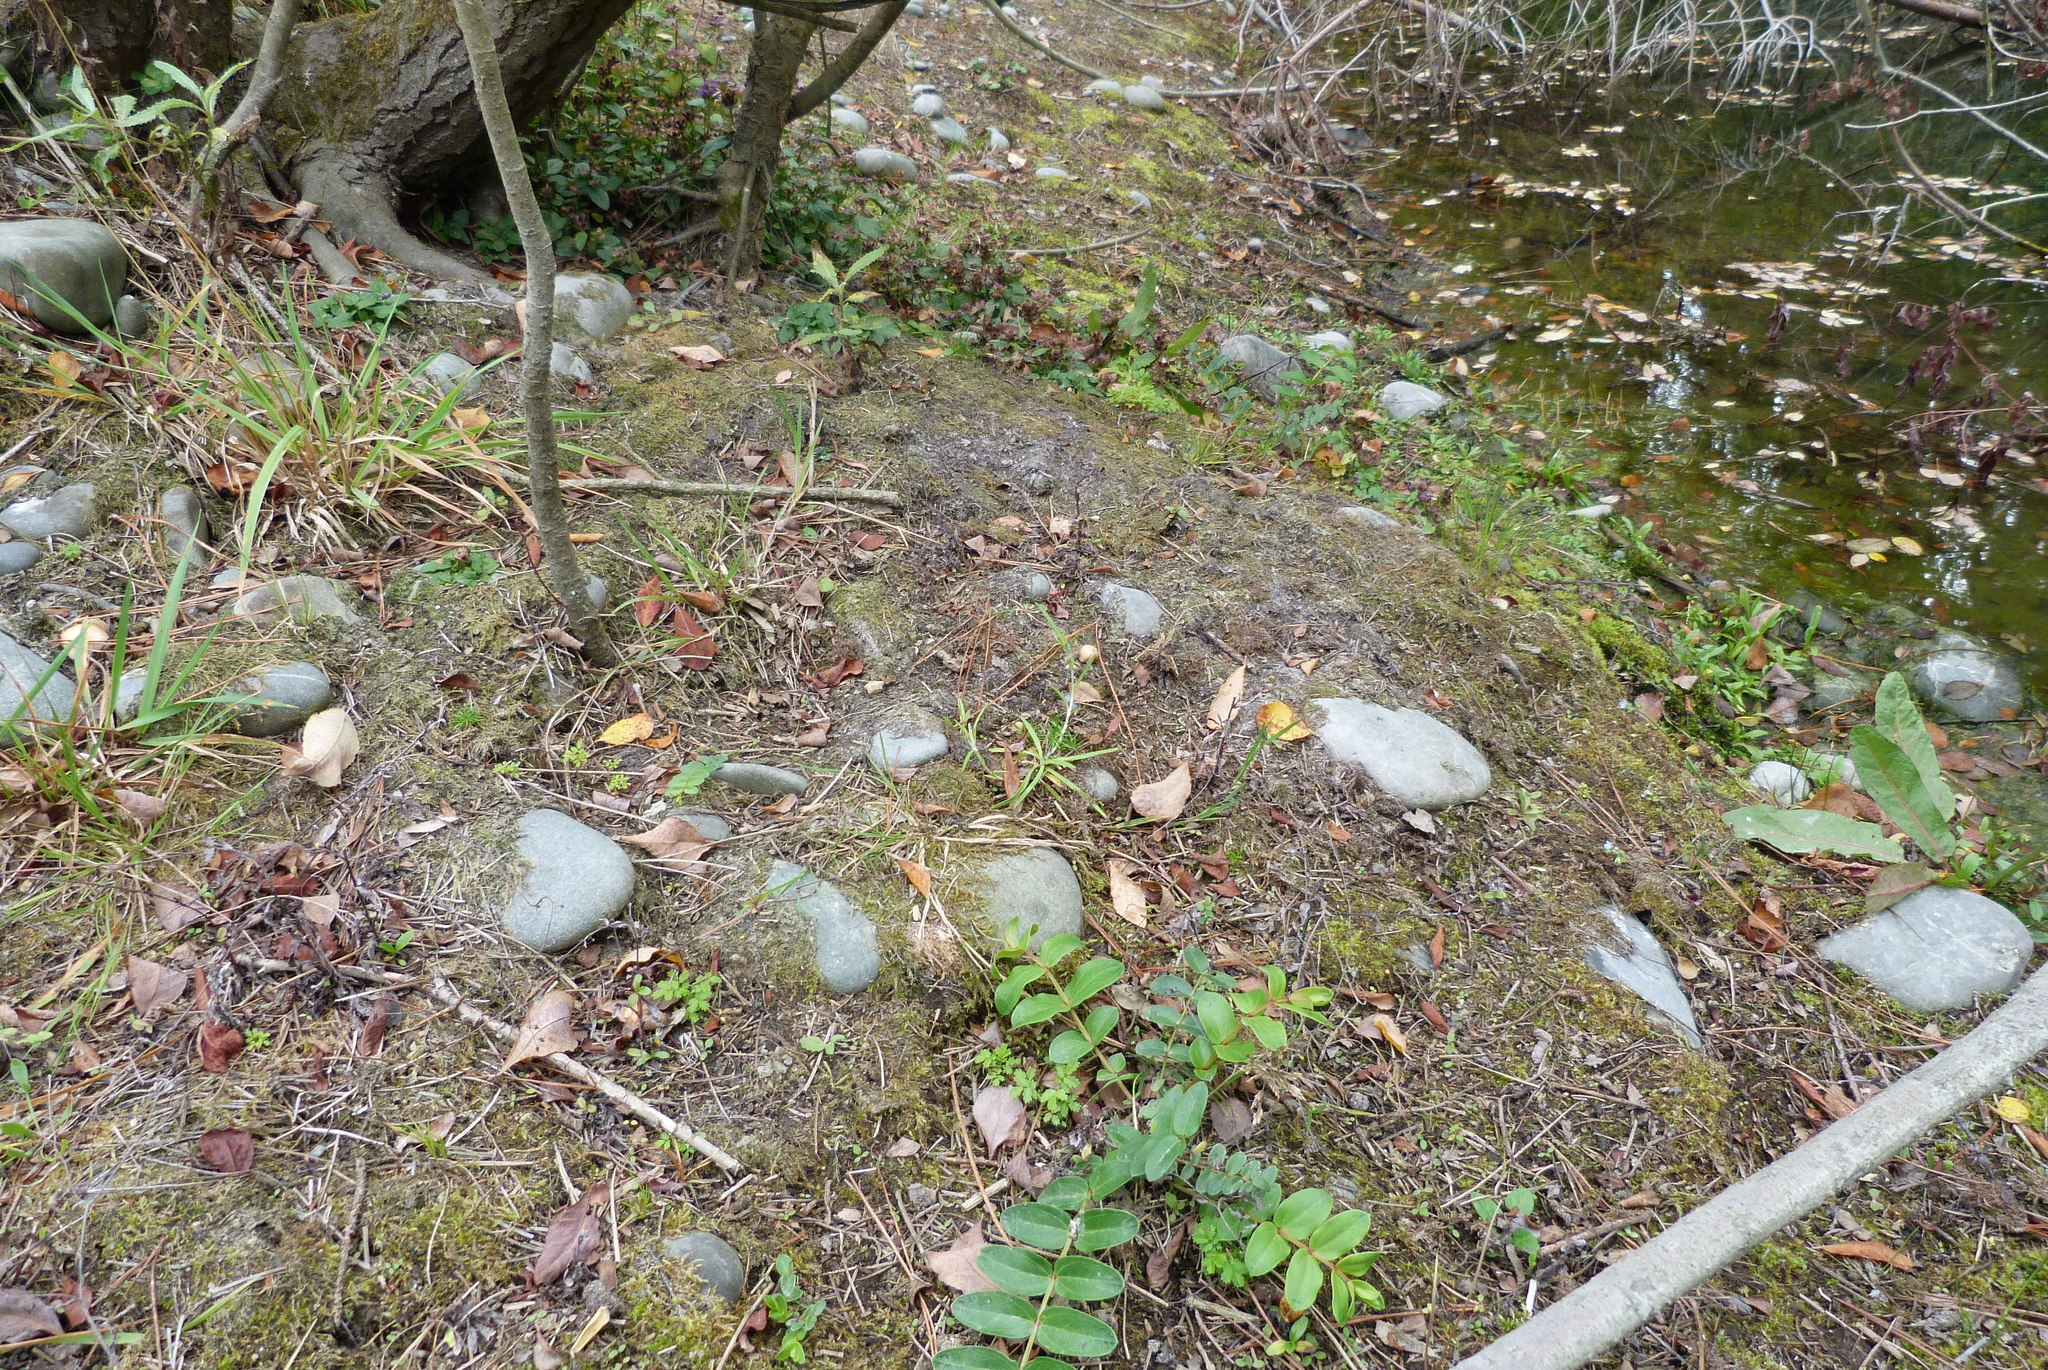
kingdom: Plantae
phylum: Tracheophyta
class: Magnoliopsida
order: Lamiales
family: Lamiaceae
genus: Prunella
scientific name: Prunella vulgaris
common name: Heal-all
